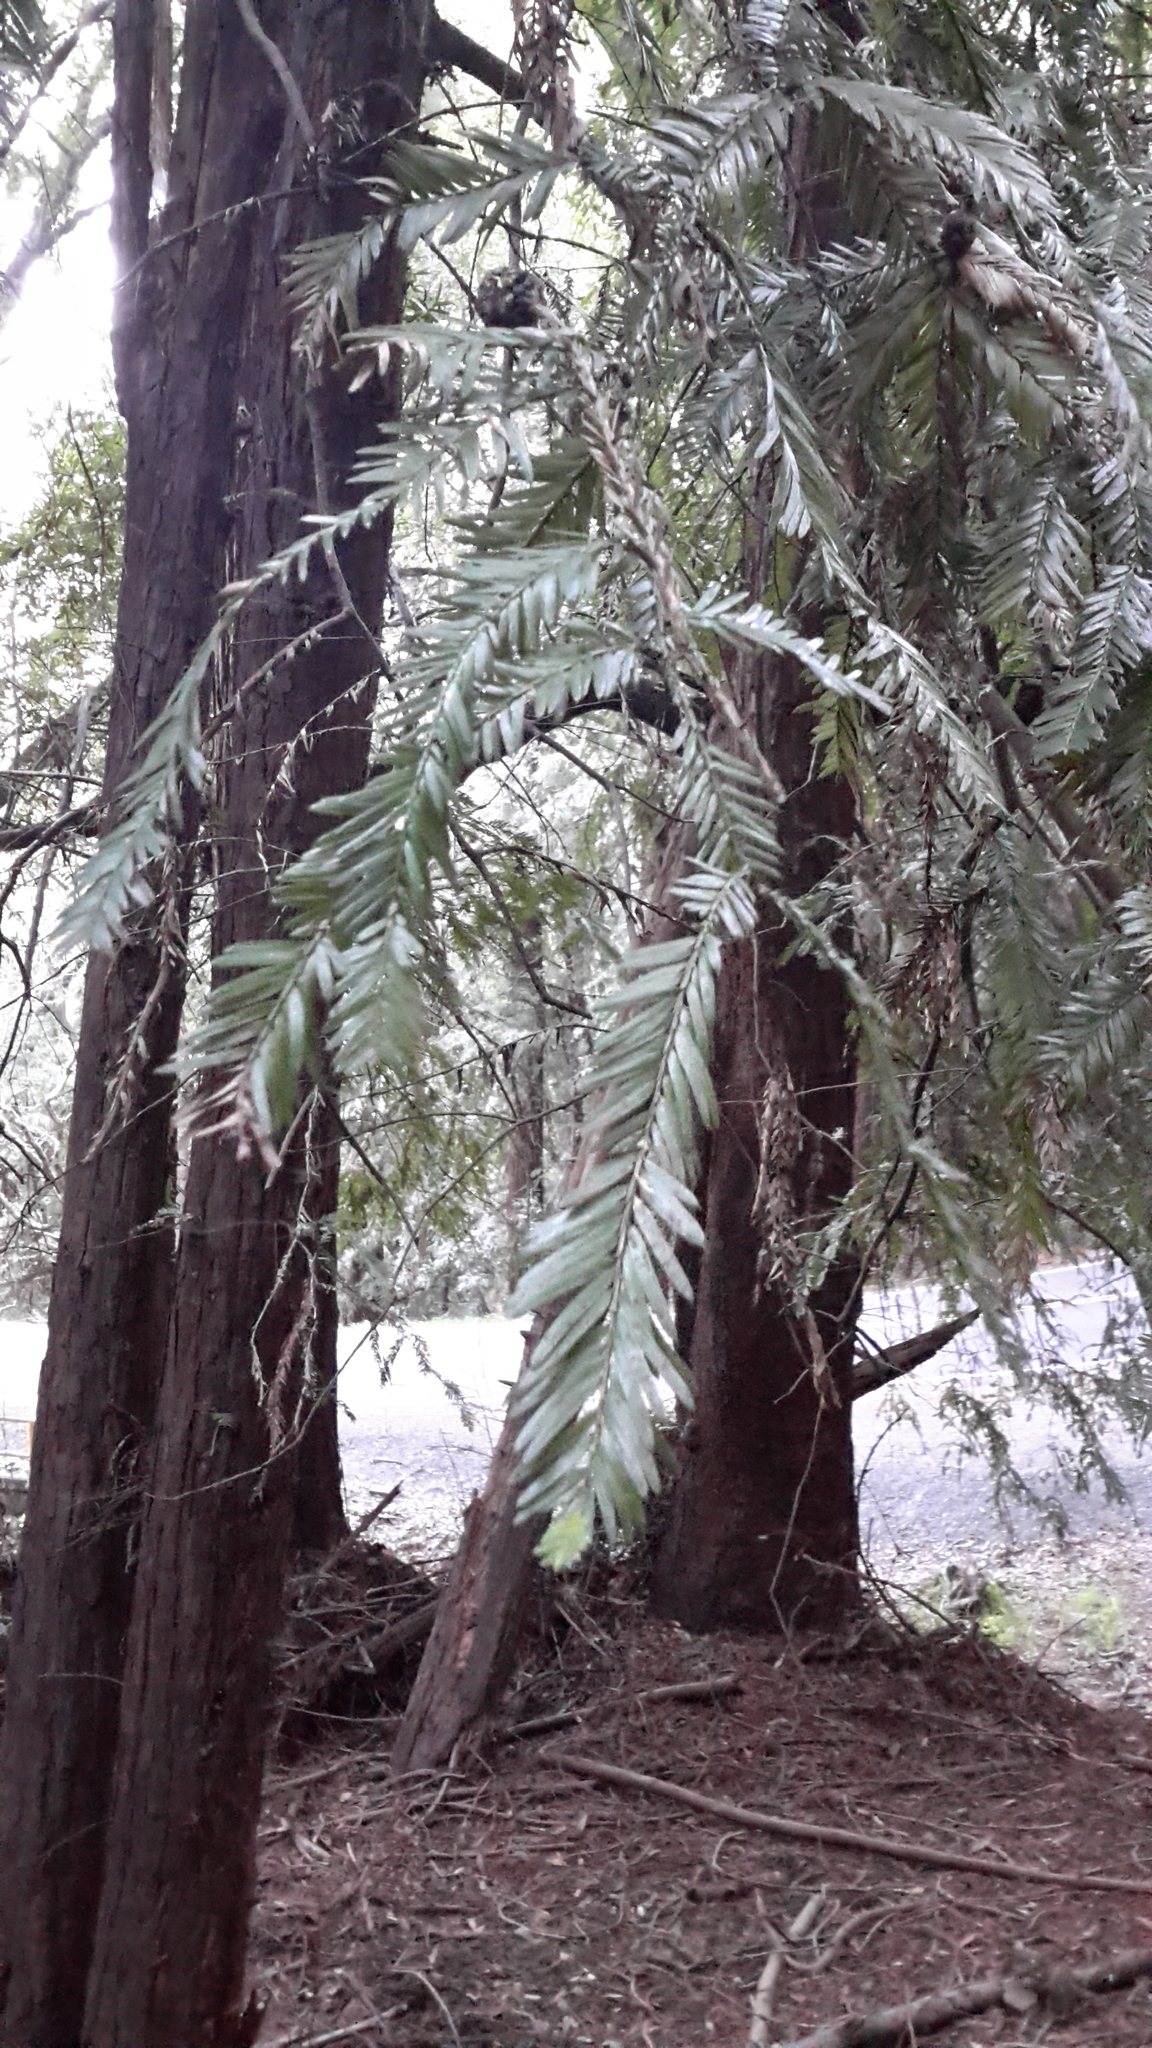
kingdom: Plantae
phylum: Tracheophyta
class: Pinopsida
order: Pinales
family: Cupressaceae
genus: Sequoia
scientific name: Sequoia sempervirens
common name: Coast redwood
